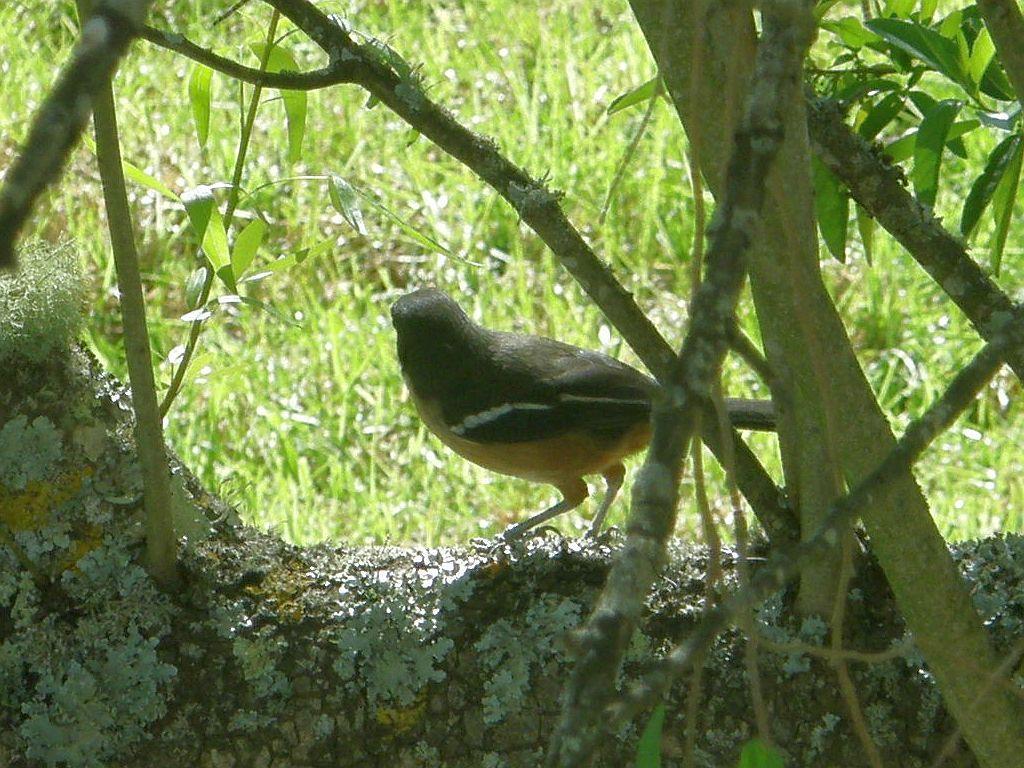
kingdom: Animalia
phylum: Chordata
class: Aves
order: Passeriformes
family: Malaconotidae
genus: Laniarius
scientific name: Laniarius ferrugineus
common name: Southern boubou
